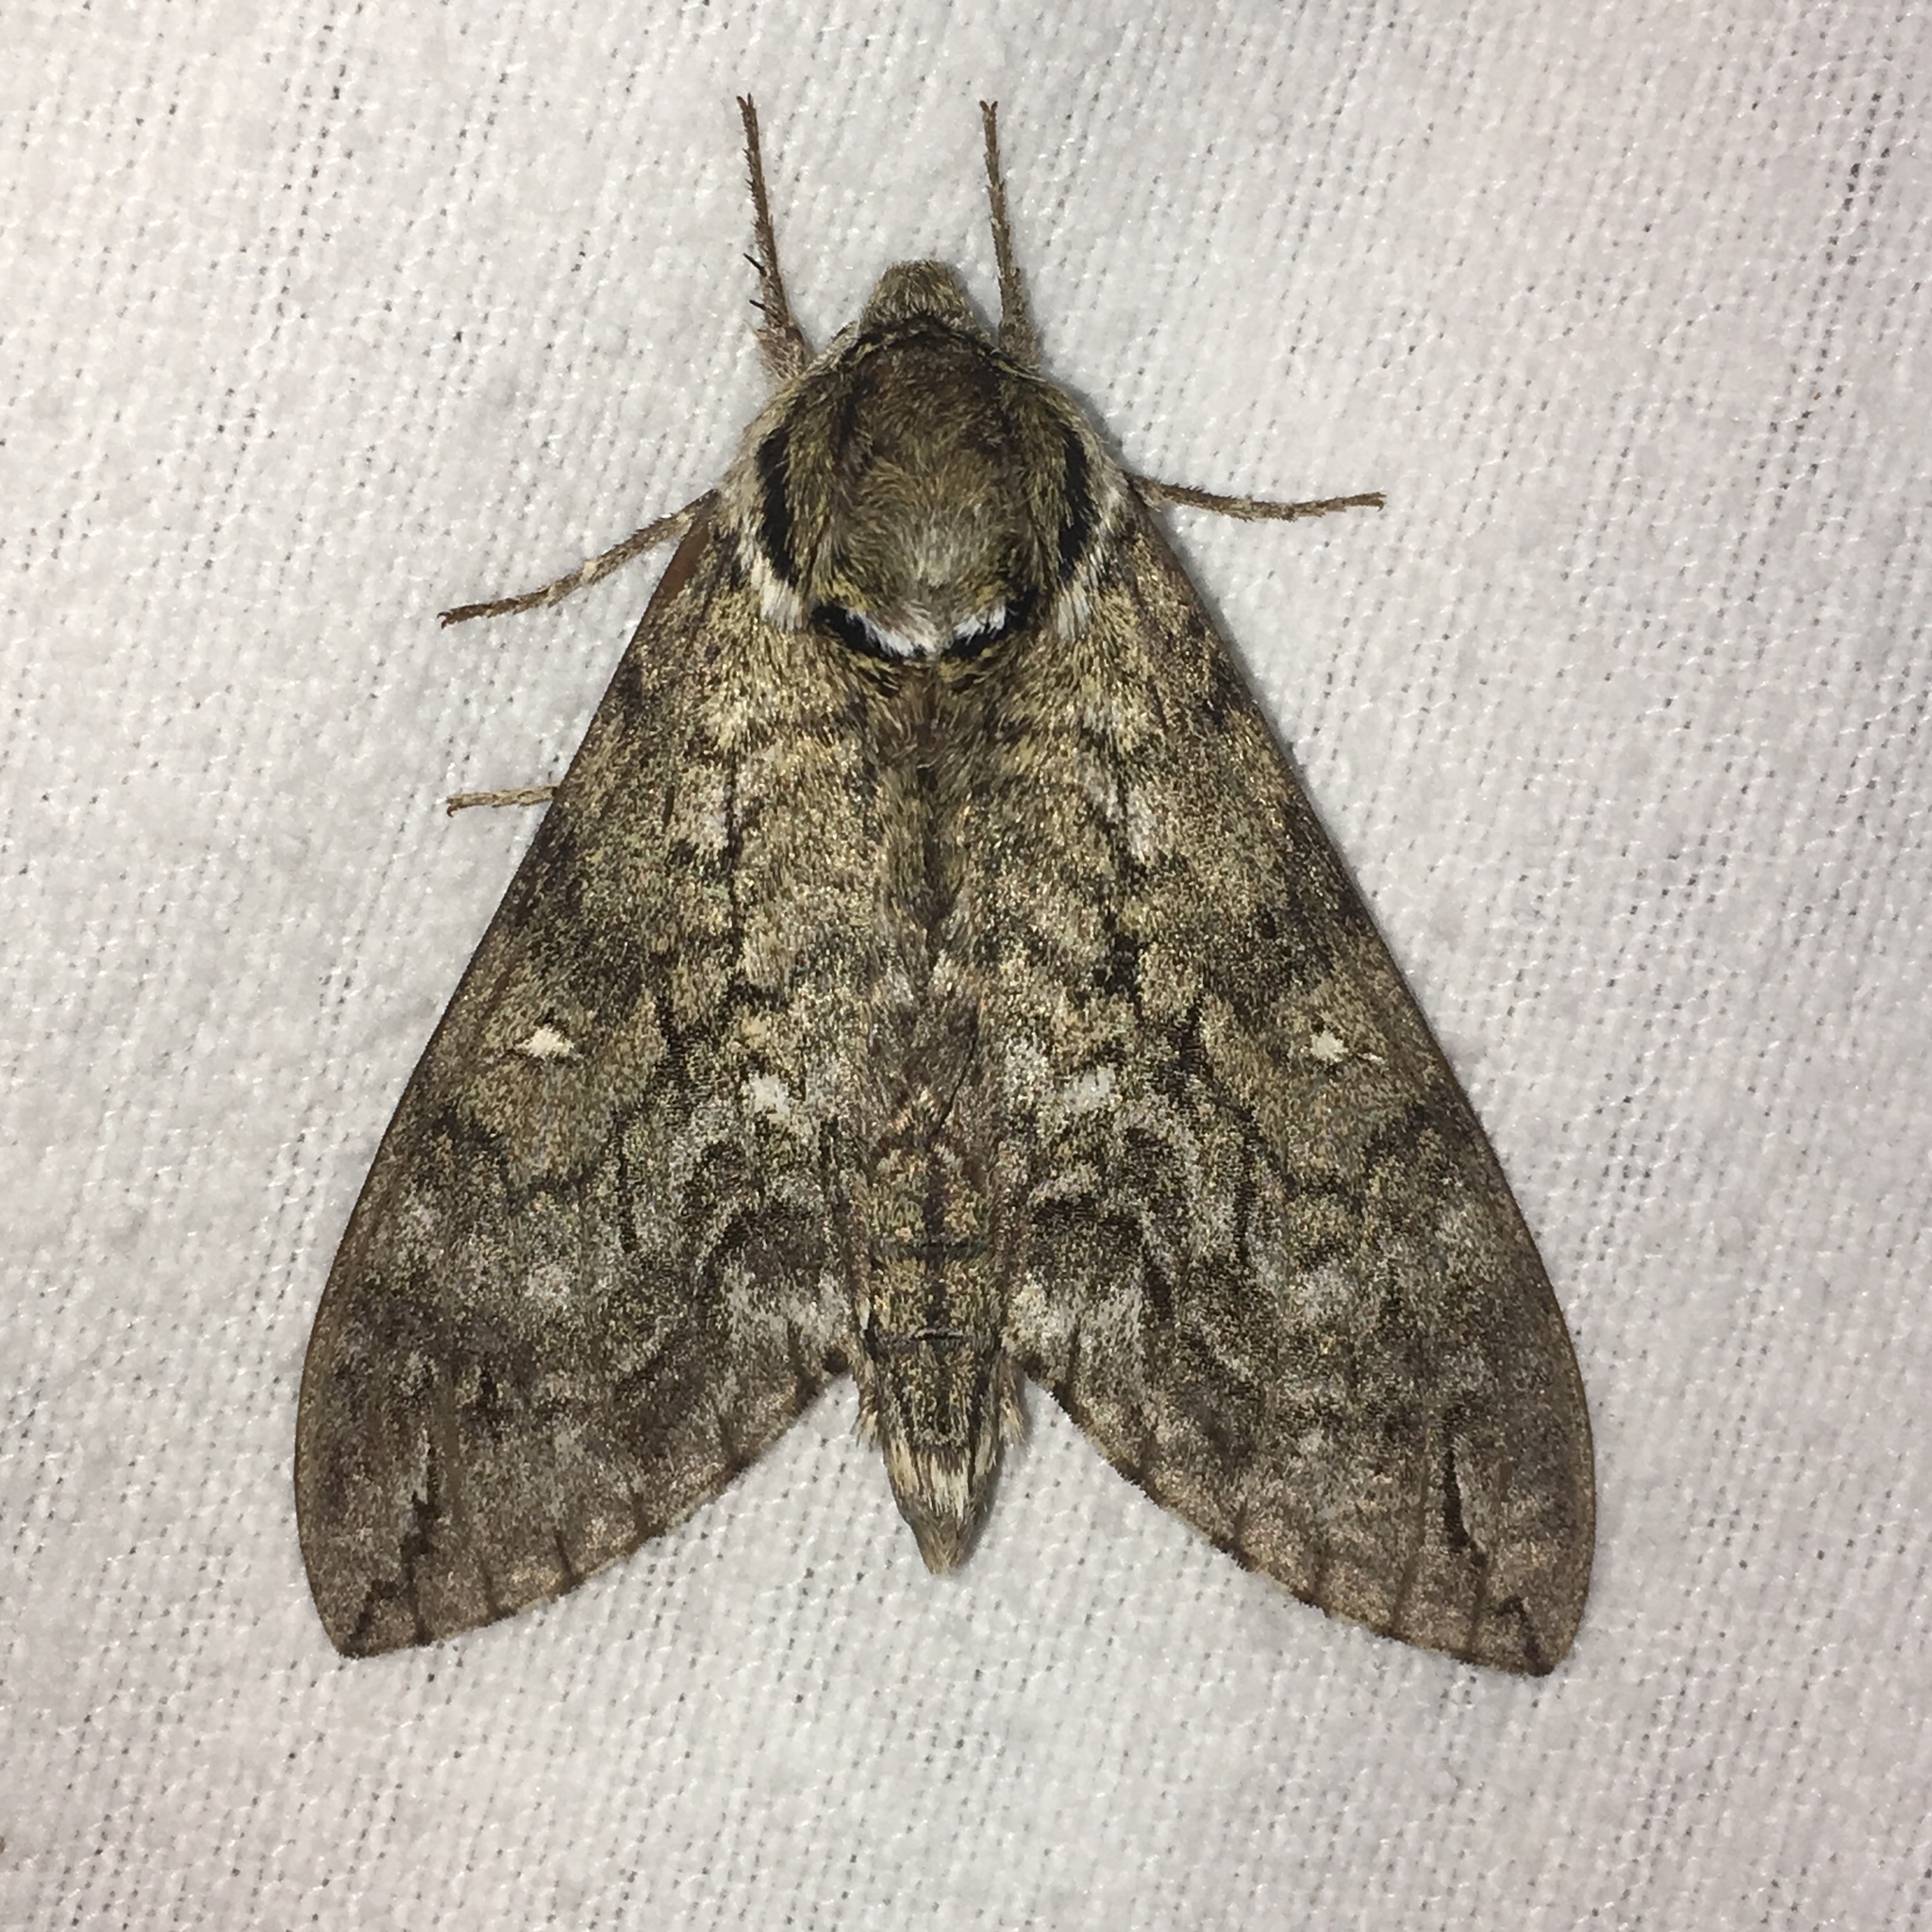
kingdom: Animalia
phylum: Arthropoda
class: Insecta
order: Lepidoptera
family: Sphingidae
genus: Ceratomia
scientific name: Ceratomia undulosa
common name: Waved sphinx
